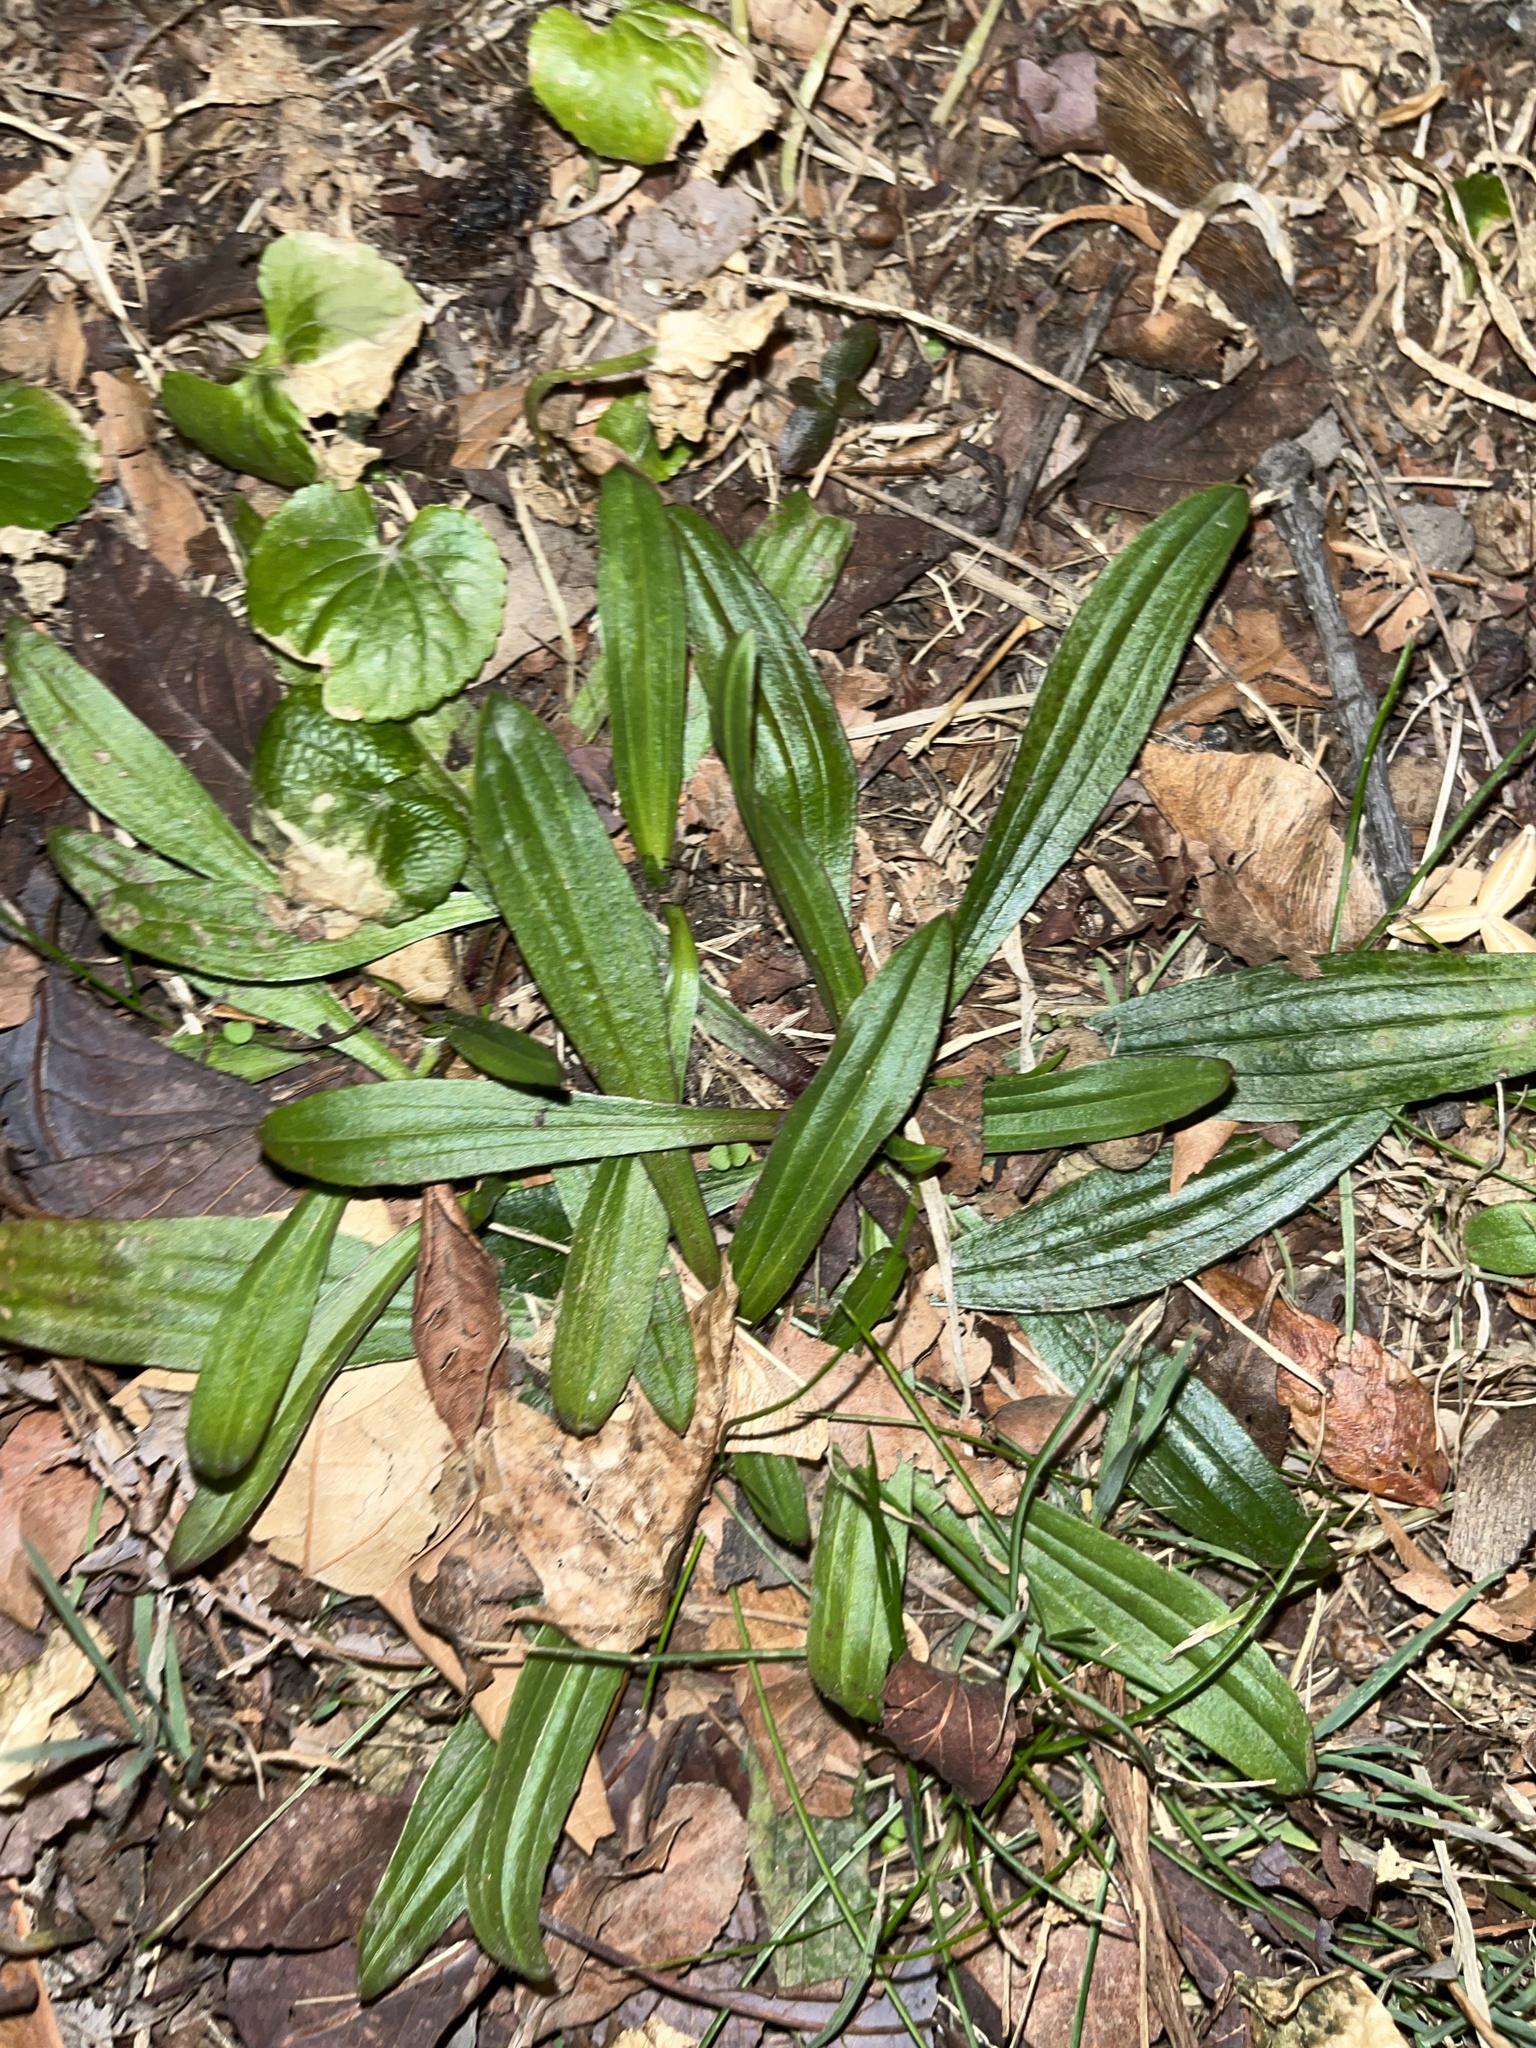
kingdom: Plantae
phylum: Tracheophyta
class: Magnoliopsida
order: Lamiales
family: Plantaginaceae
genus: Plantago
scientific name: Plantago lanceolata
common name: Ribwort plantain
